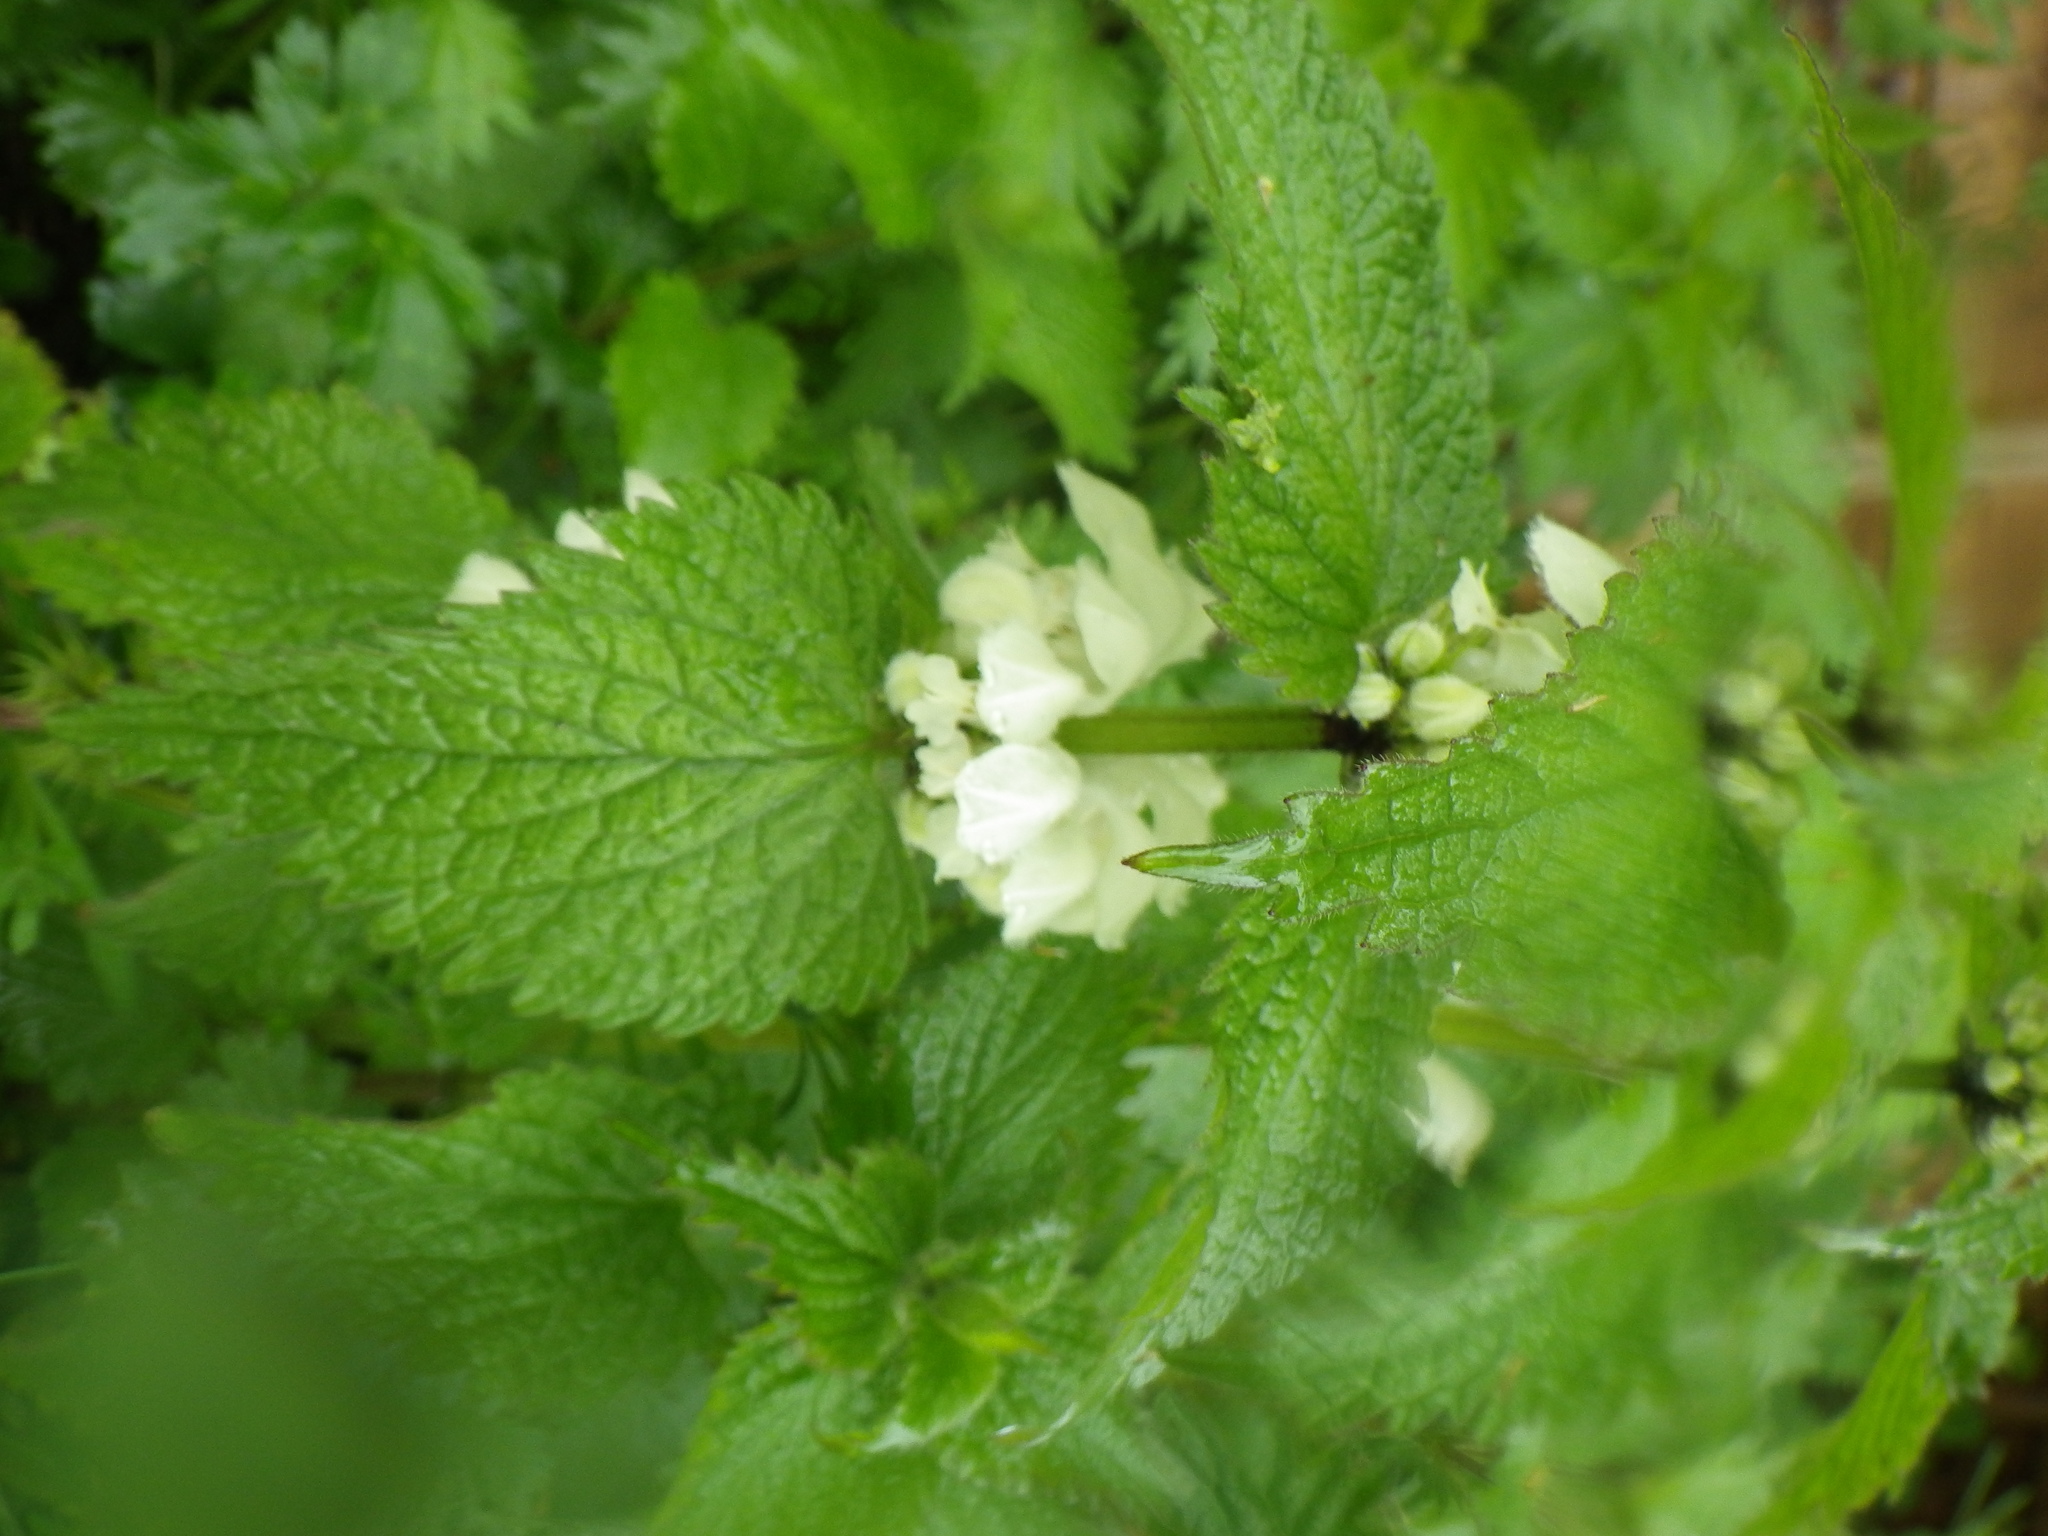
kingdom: Plantae
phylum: Tracheophyta
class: Magnoliopsida
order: Lamiales
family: Lamiaceae
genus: Lamium
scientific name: Lamium album
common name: White dead-nettle
